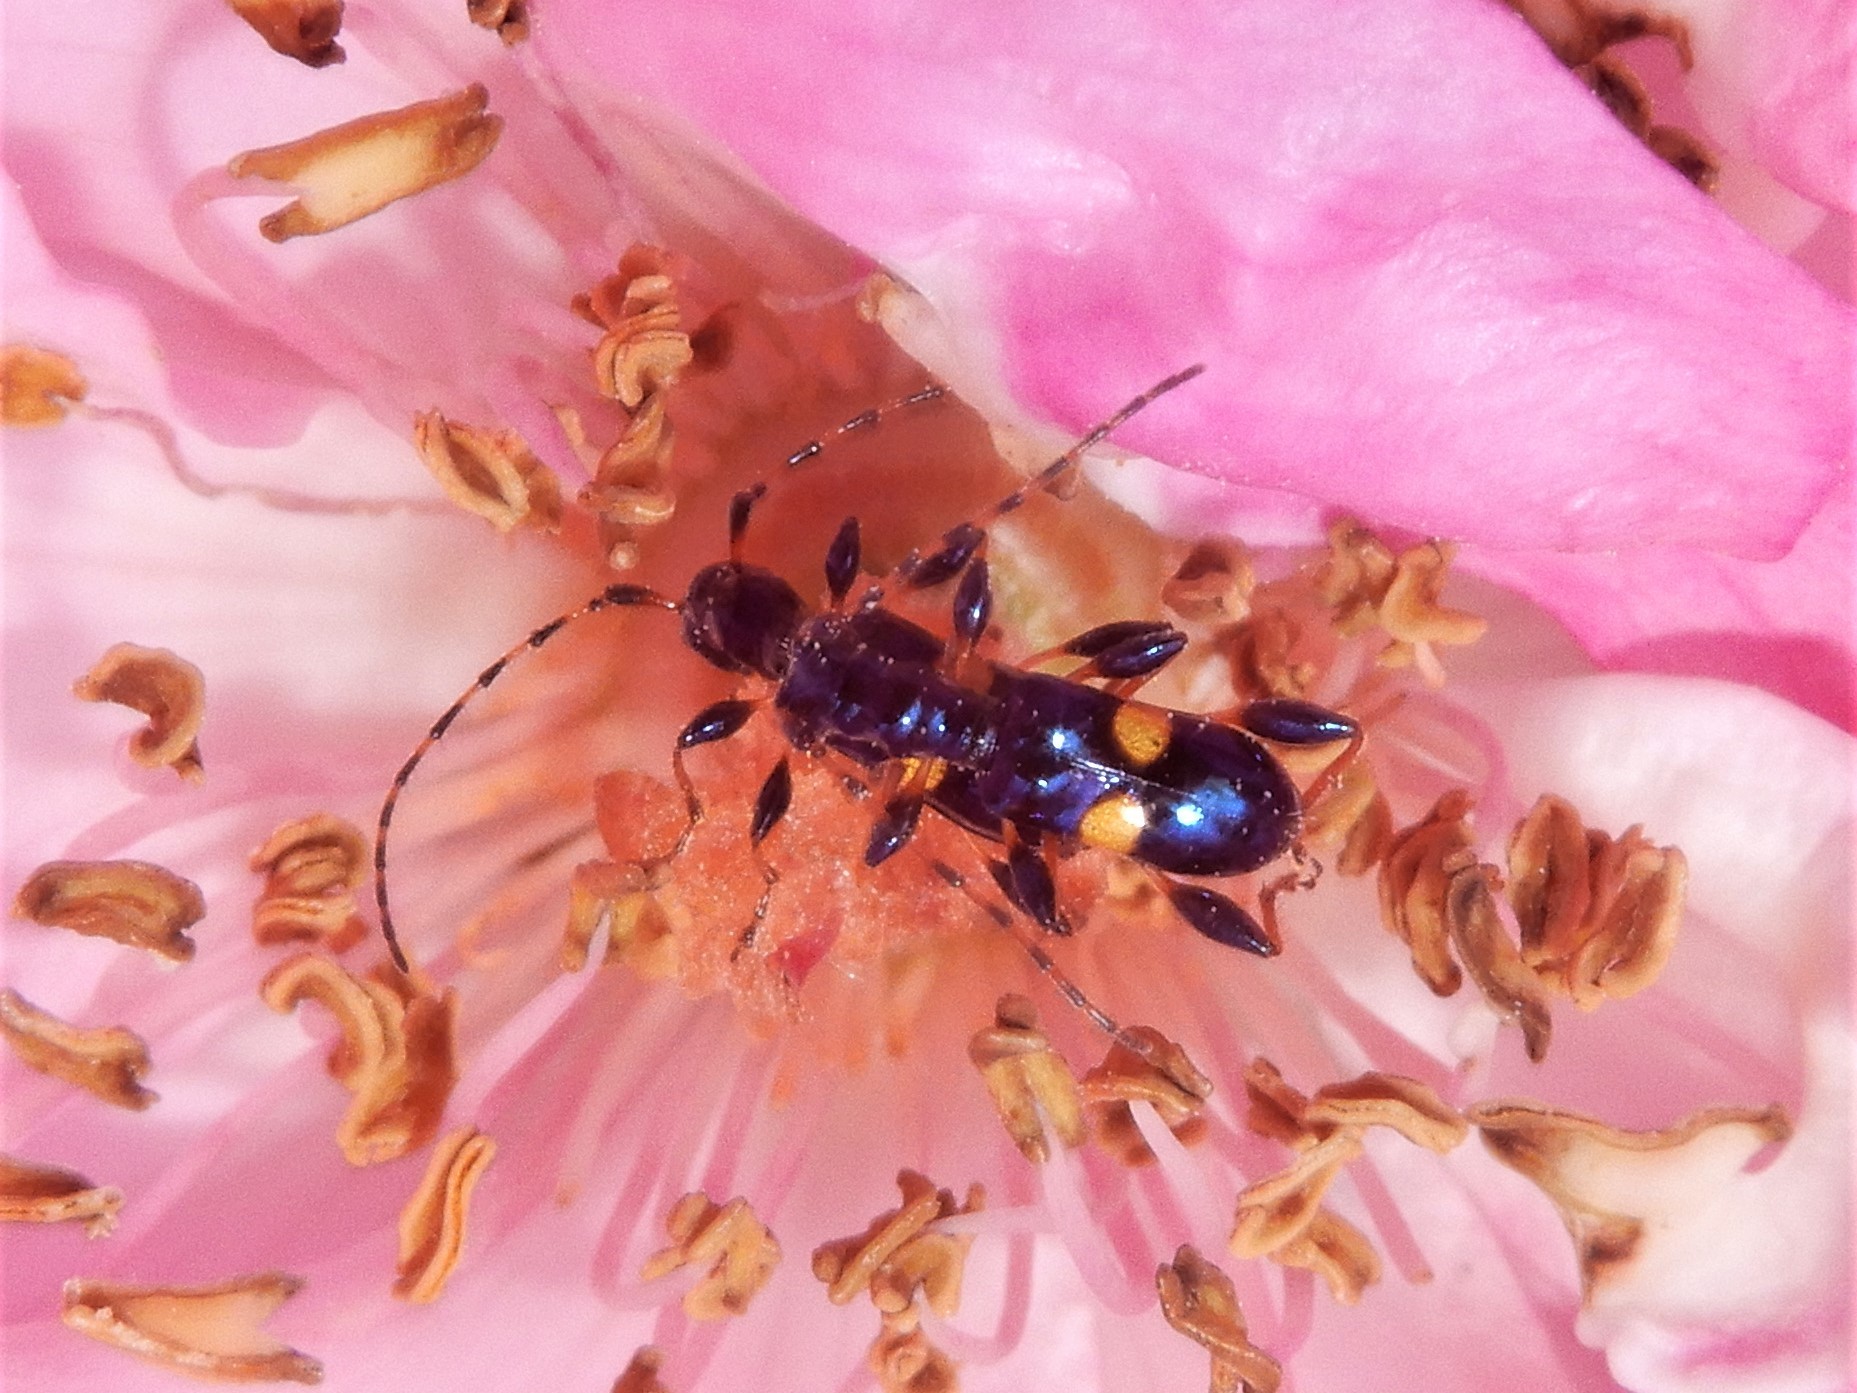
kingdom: Animalia
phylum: Arthropoda
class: Insecta
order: Coleoptera
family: Cerambycidae
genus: Zorion
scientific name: Zorion guttigerum
